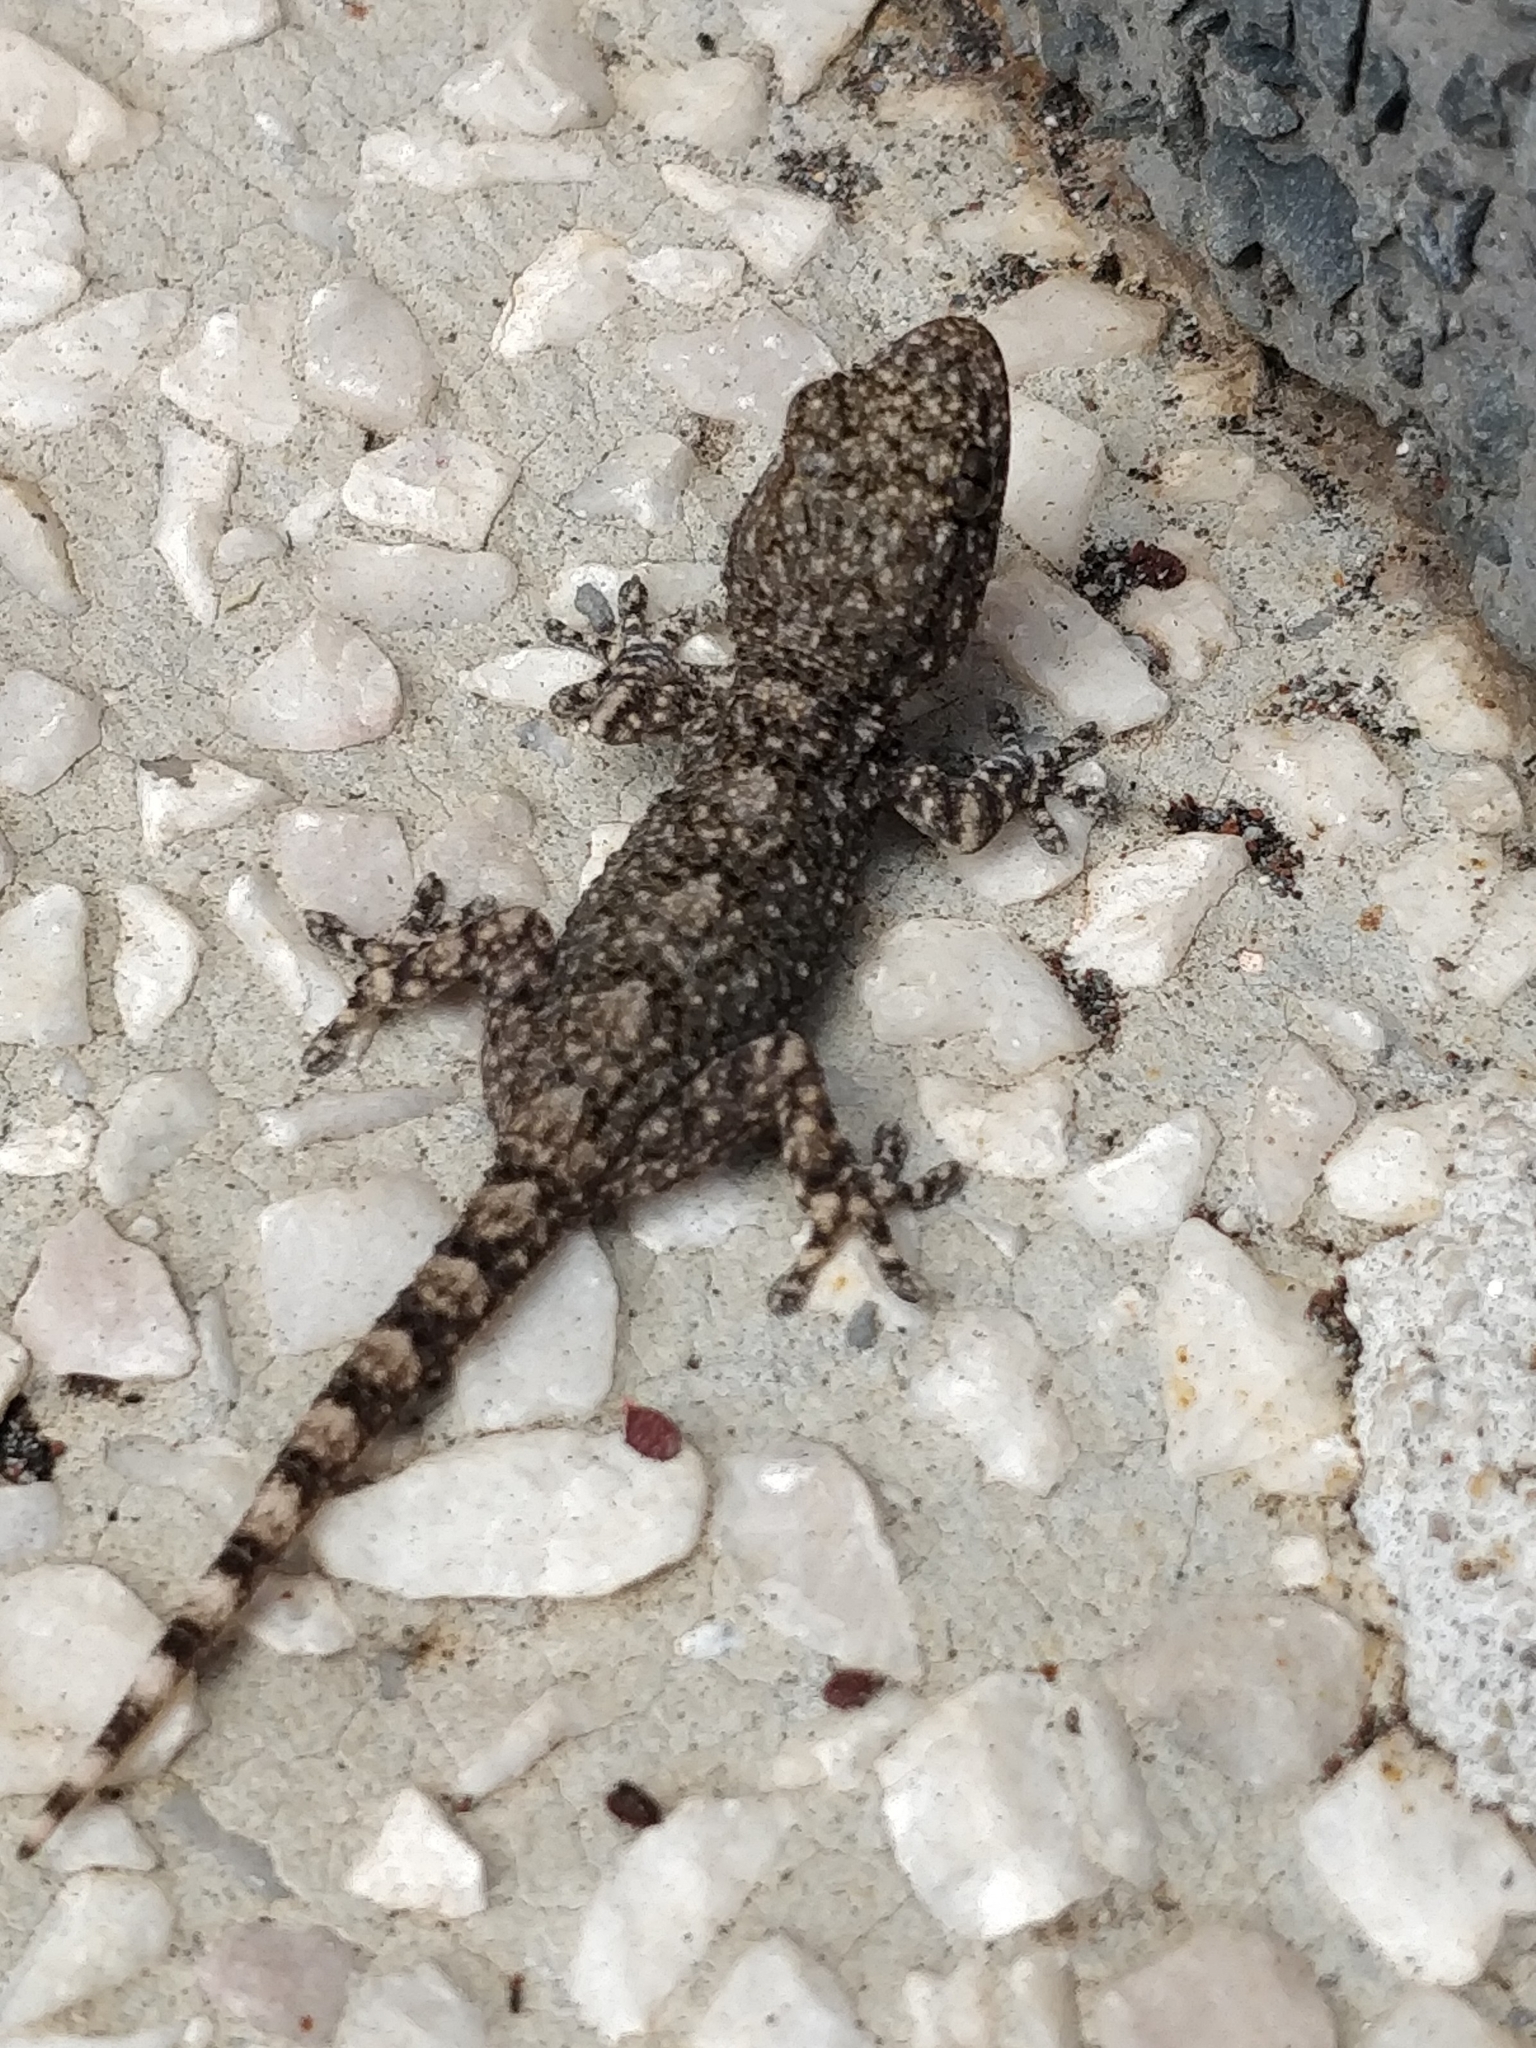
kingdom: Animalia
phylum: Chordata
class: Squamata
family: Phyllodactylidae
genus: Tarentola
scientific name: Tarentola mauritanica
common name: Moorish gecko
